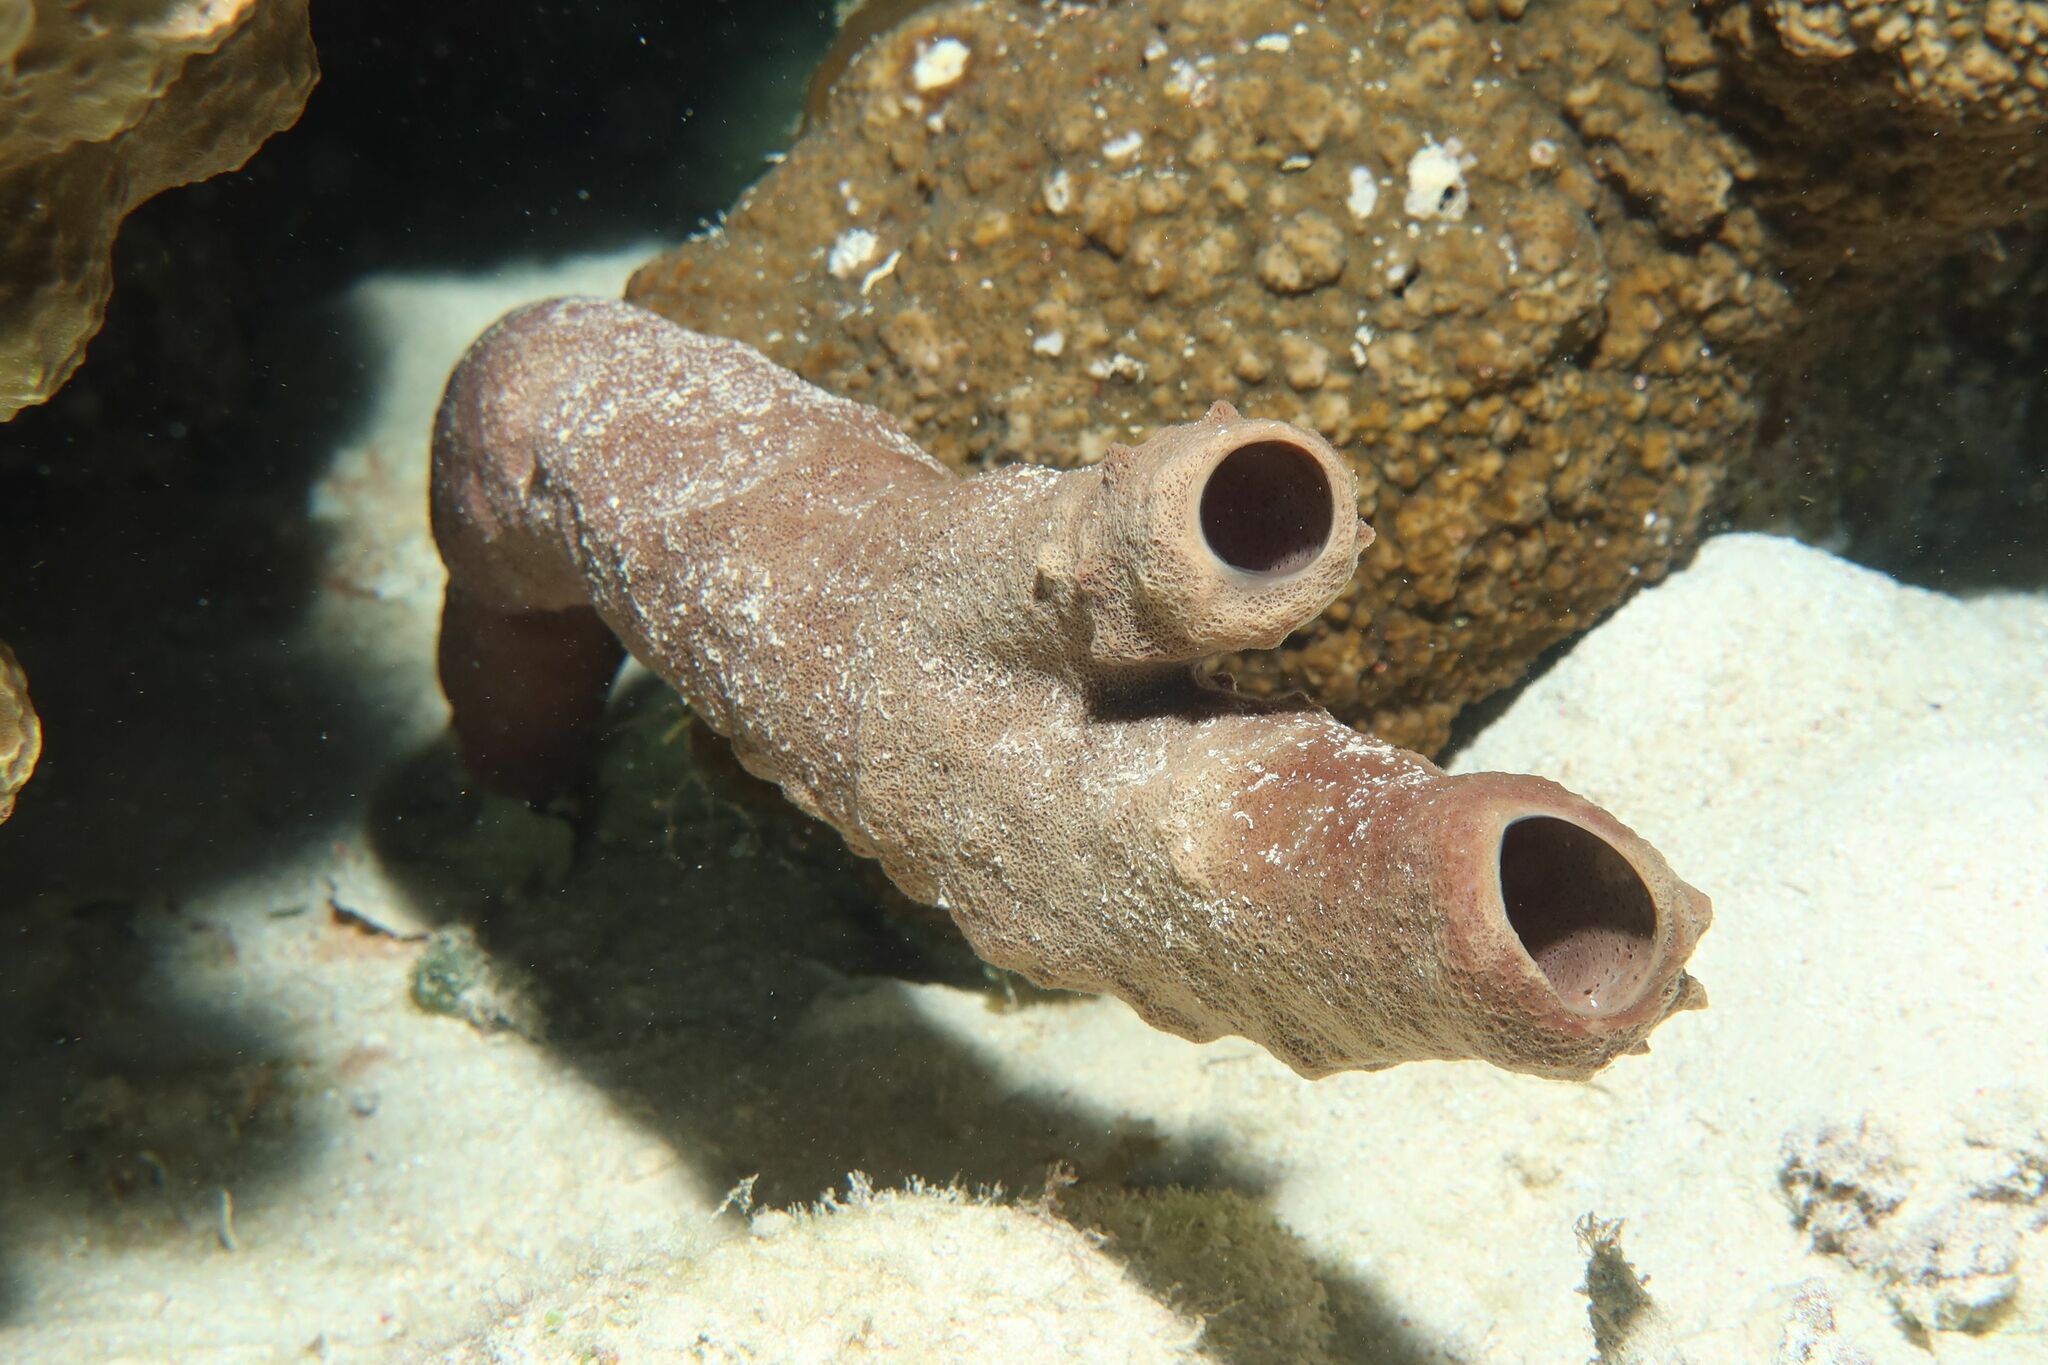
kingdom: Animalia
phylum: Porifera
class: Demospongiae
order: Haplosclerida
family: Callyspongiidae
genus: Callyspongia
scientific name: Callyspongia crassa
